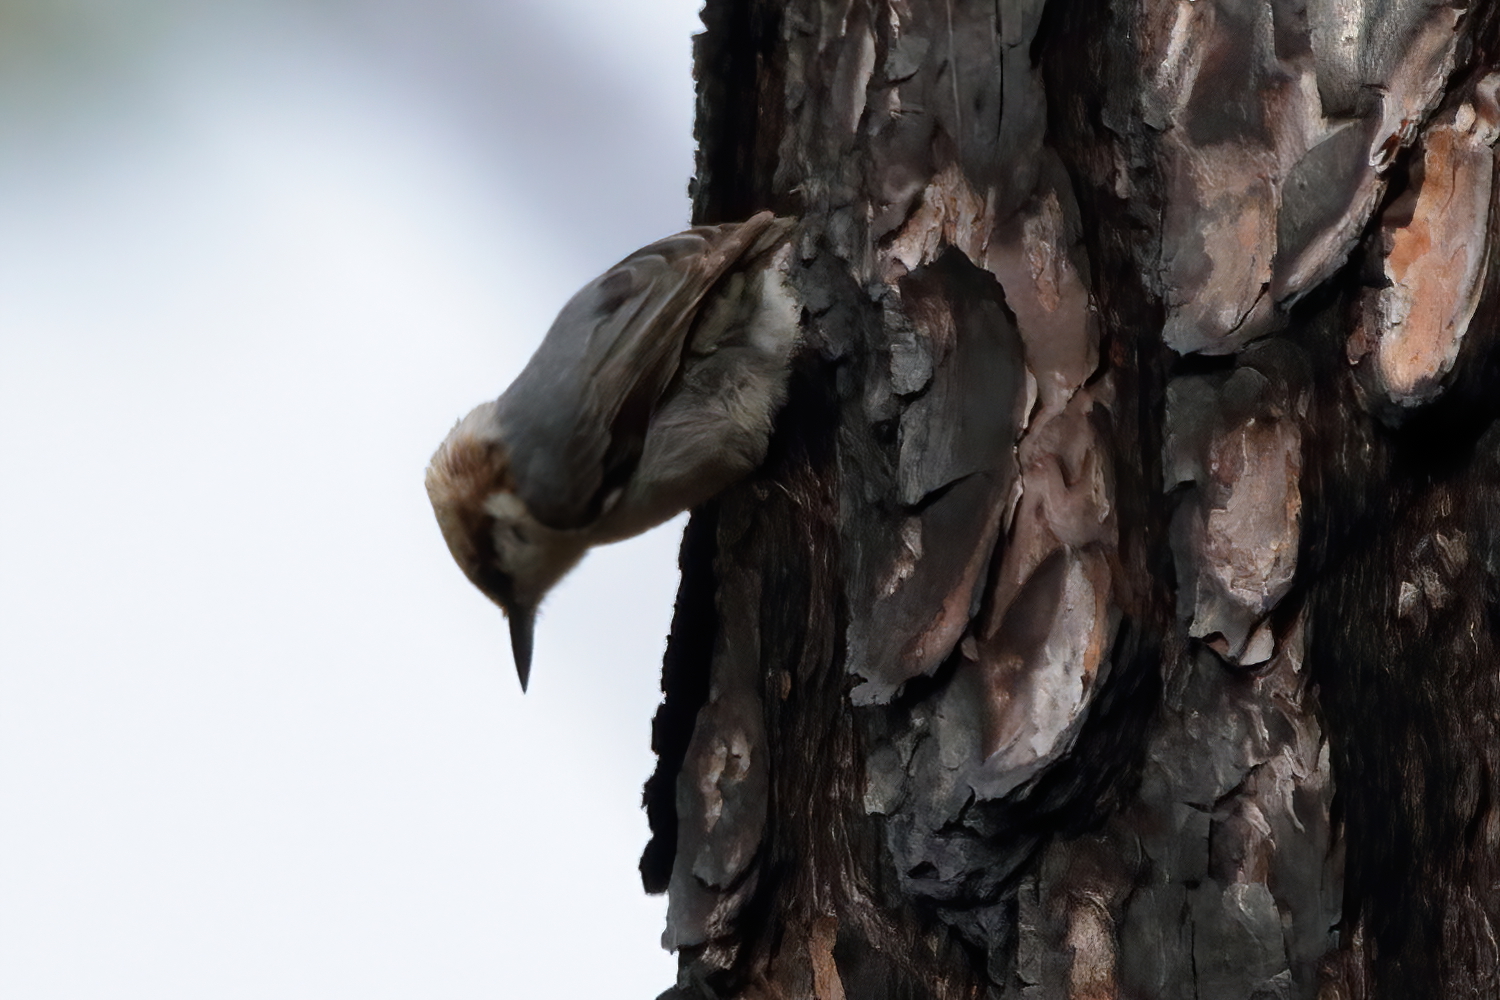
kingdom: Animalia
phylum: Chordata
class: Aves
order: Passeriformes
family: Sittidae
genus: Sitta
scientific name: Sitta pusilla
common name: Brown-headed nuthatch
